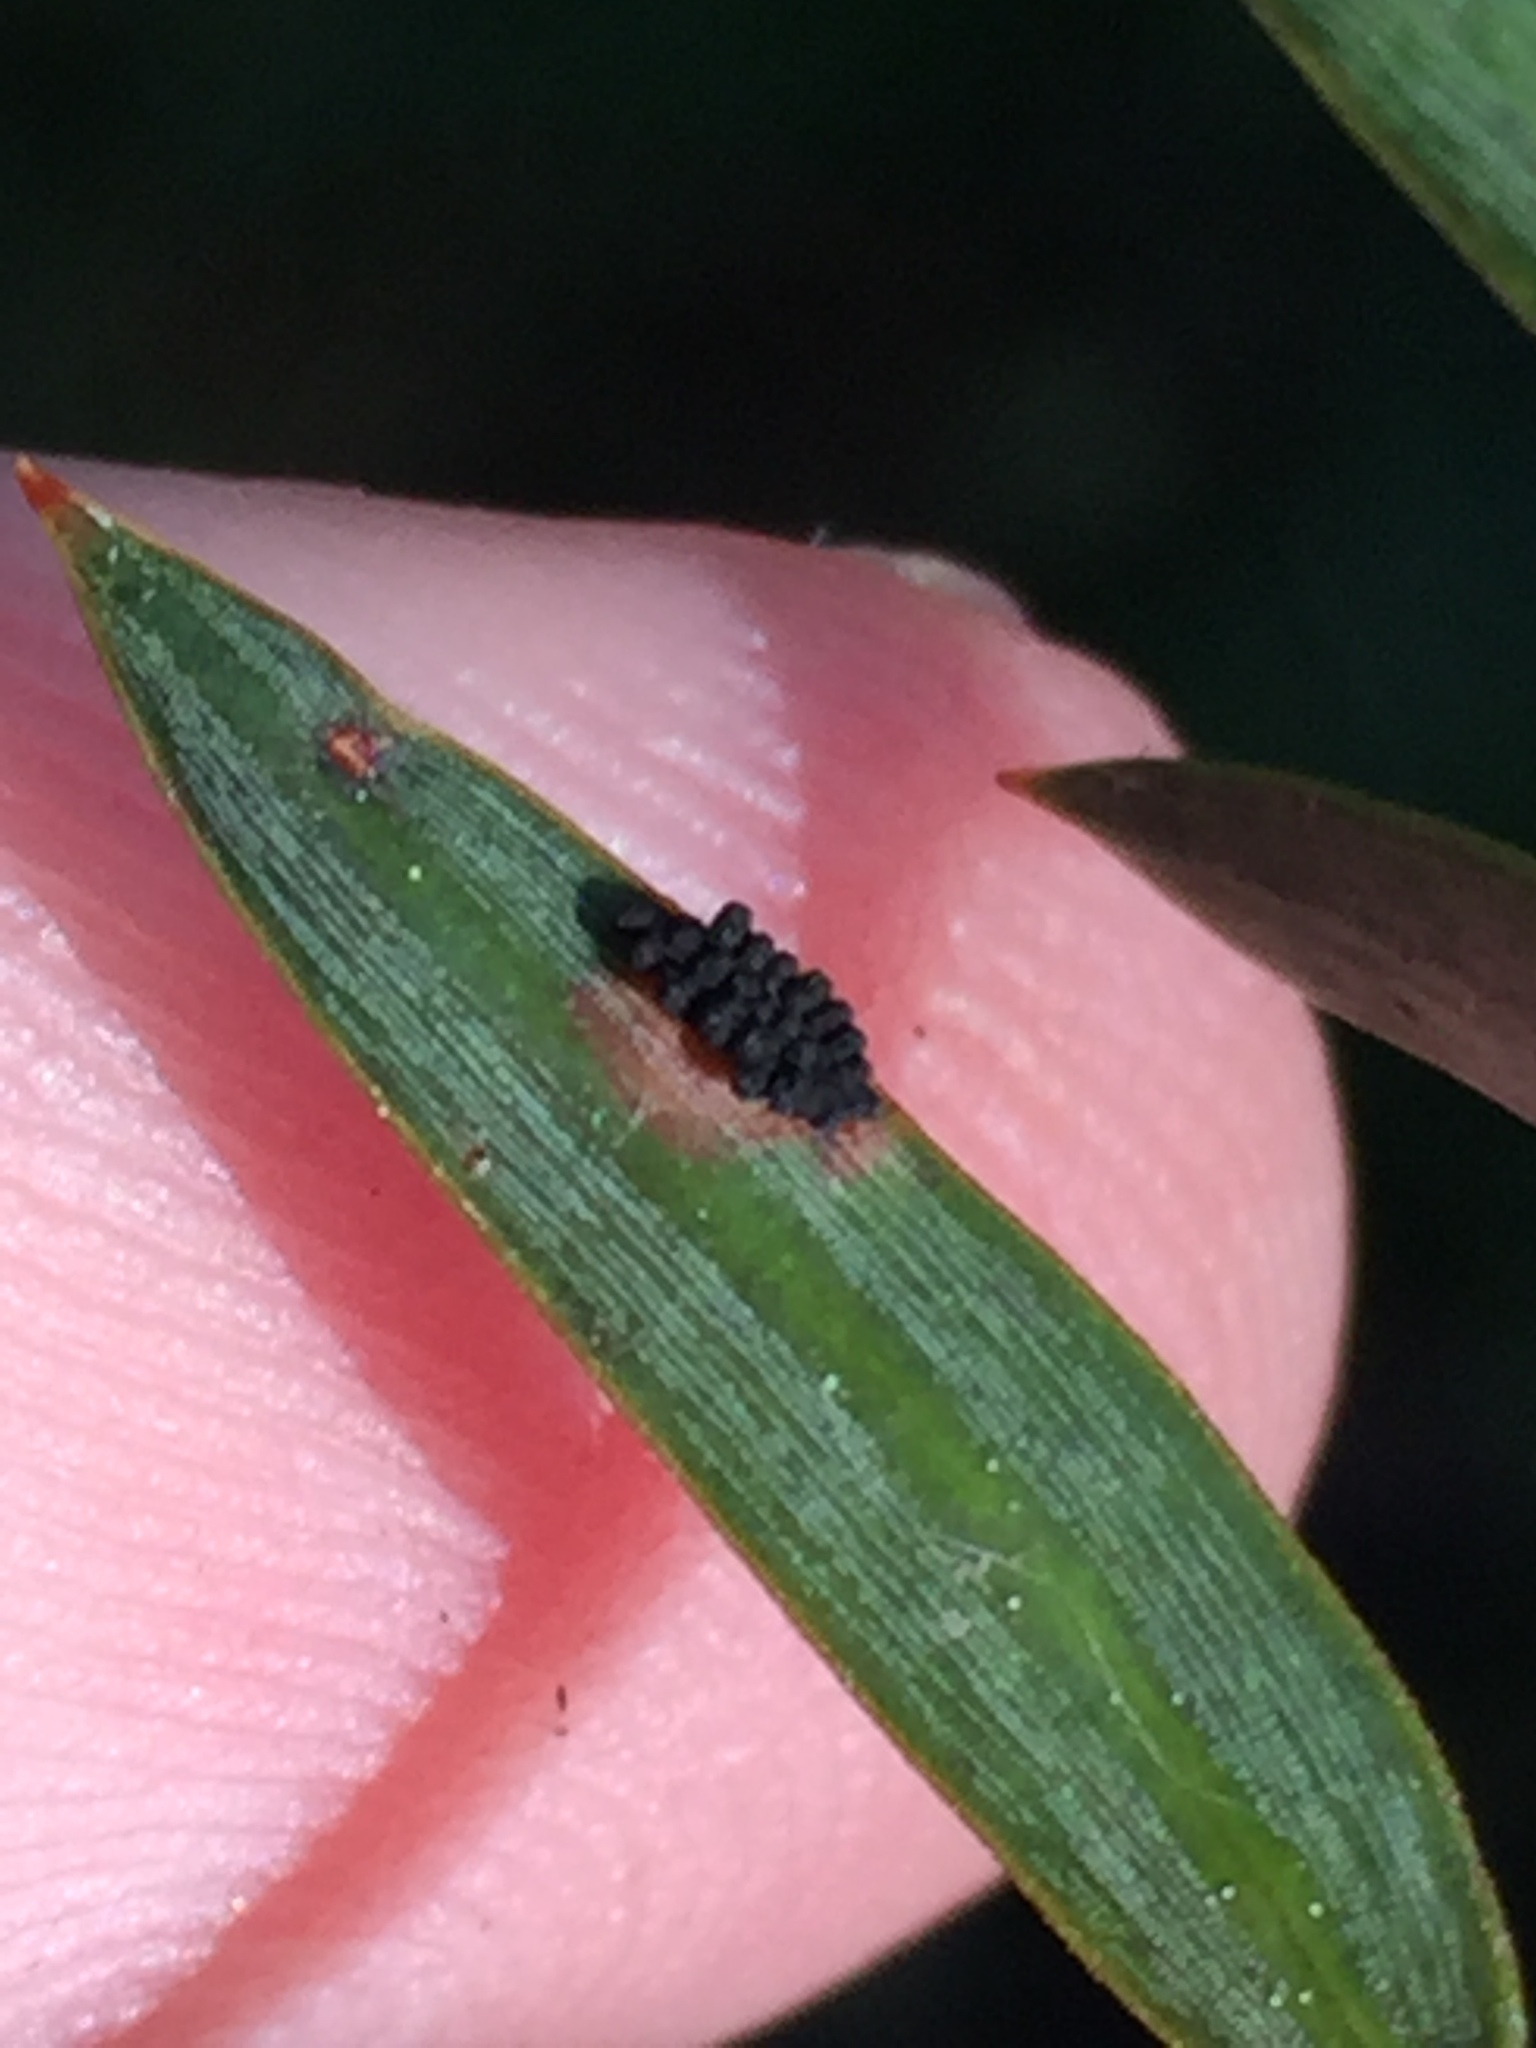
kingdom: Fungi
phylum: Ascomycota
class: Eurotiomycetes
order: Coryneliales
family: Coryneliaceae
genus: Corynelia
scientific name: Corynelia tropica
